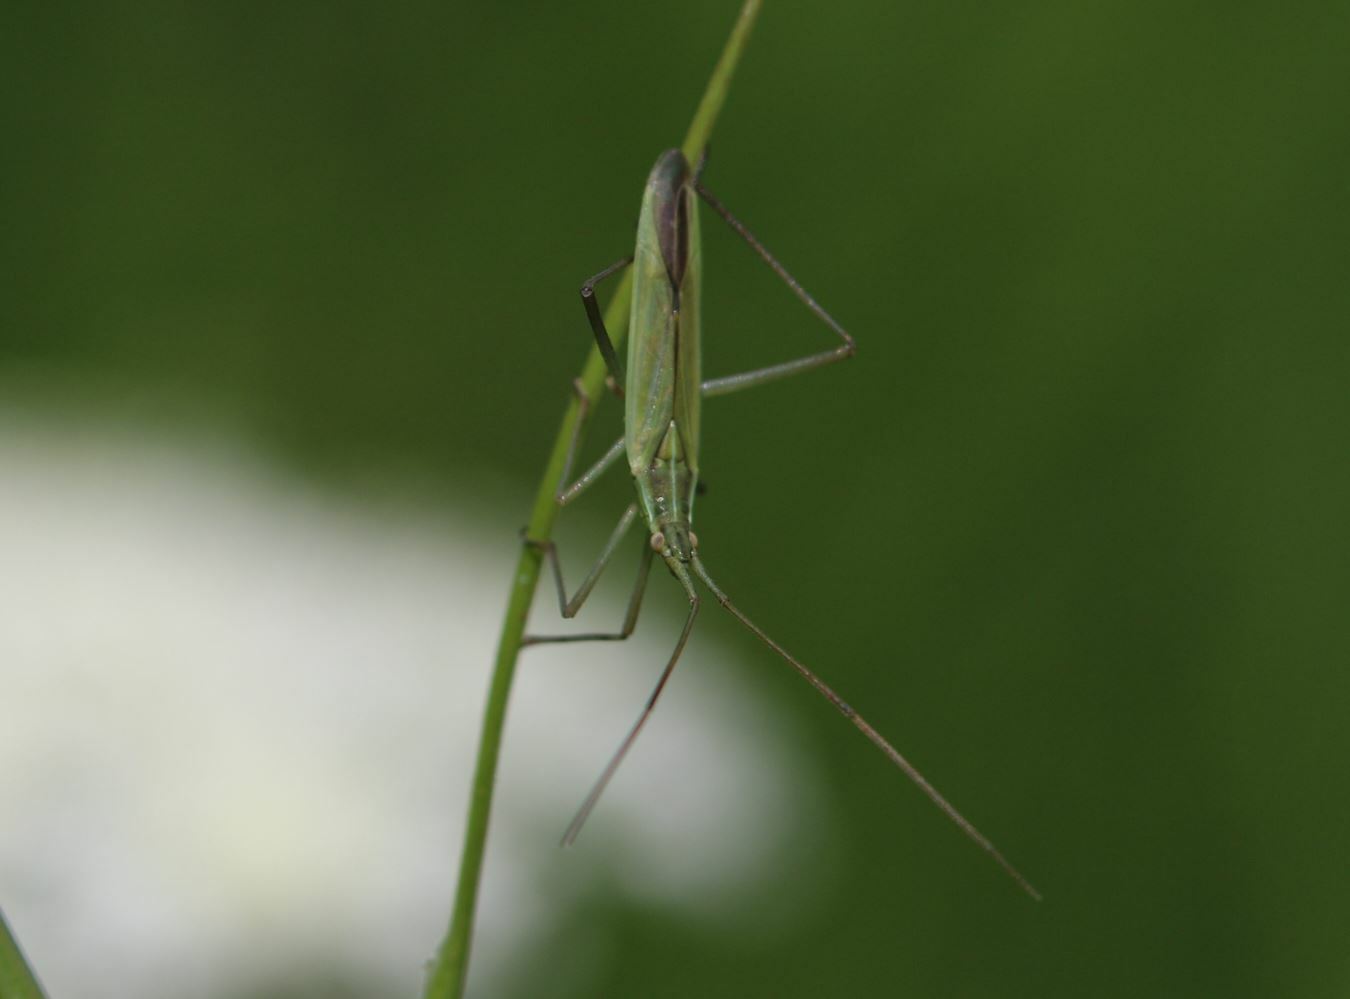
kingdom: Animalia
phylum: Arthropoda
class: Insecta
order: Hemiptera
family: Miridae
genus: Megaloceroea
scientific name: Megaloceroea recticornis
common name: Plant bug
